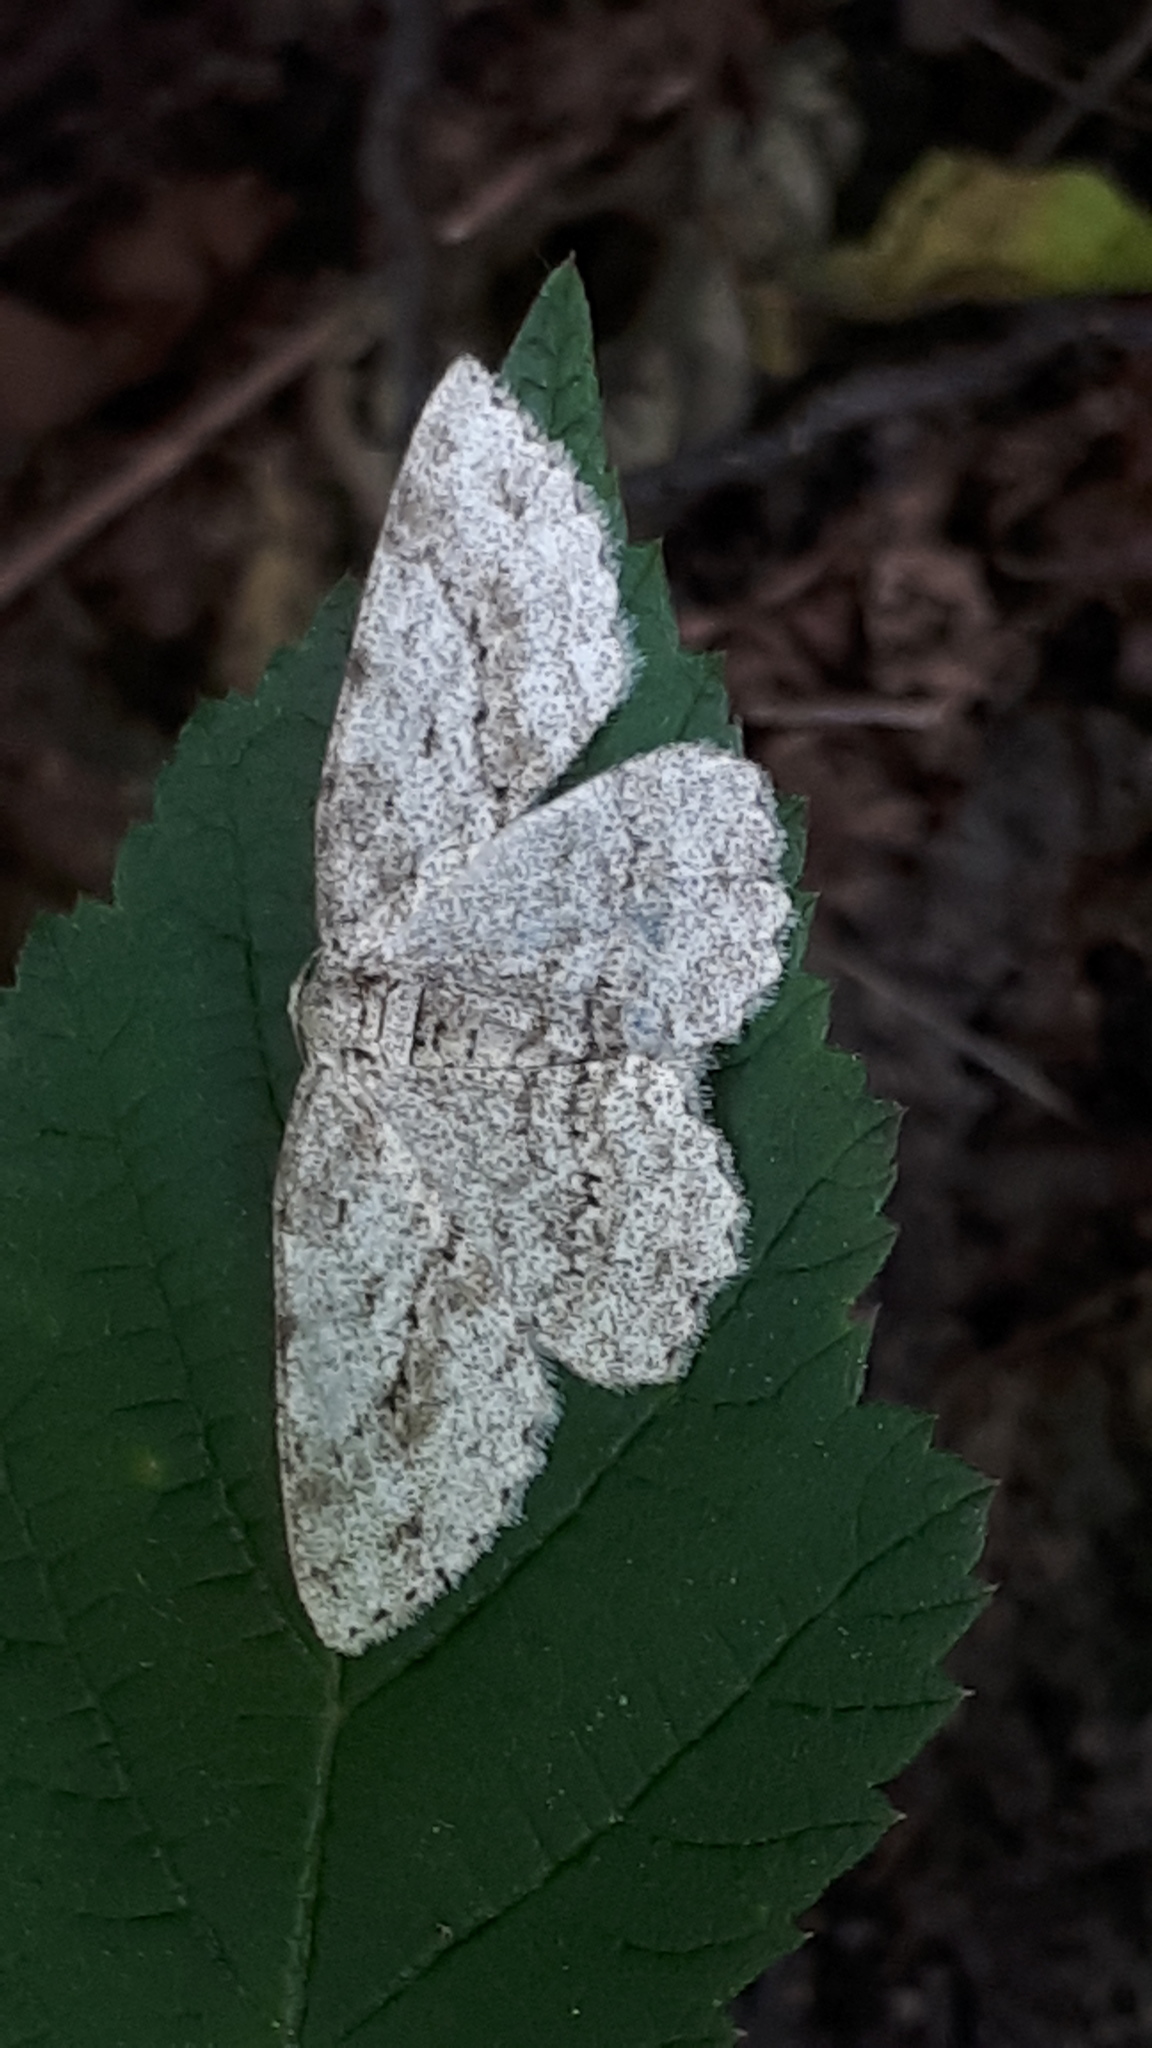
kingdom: Animalia
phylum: Arthropoda
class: Insecta
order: Lepidoptera
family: Geometridae
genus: Ectropis
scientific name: Ectropis crepuscularia
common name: Engrailed
